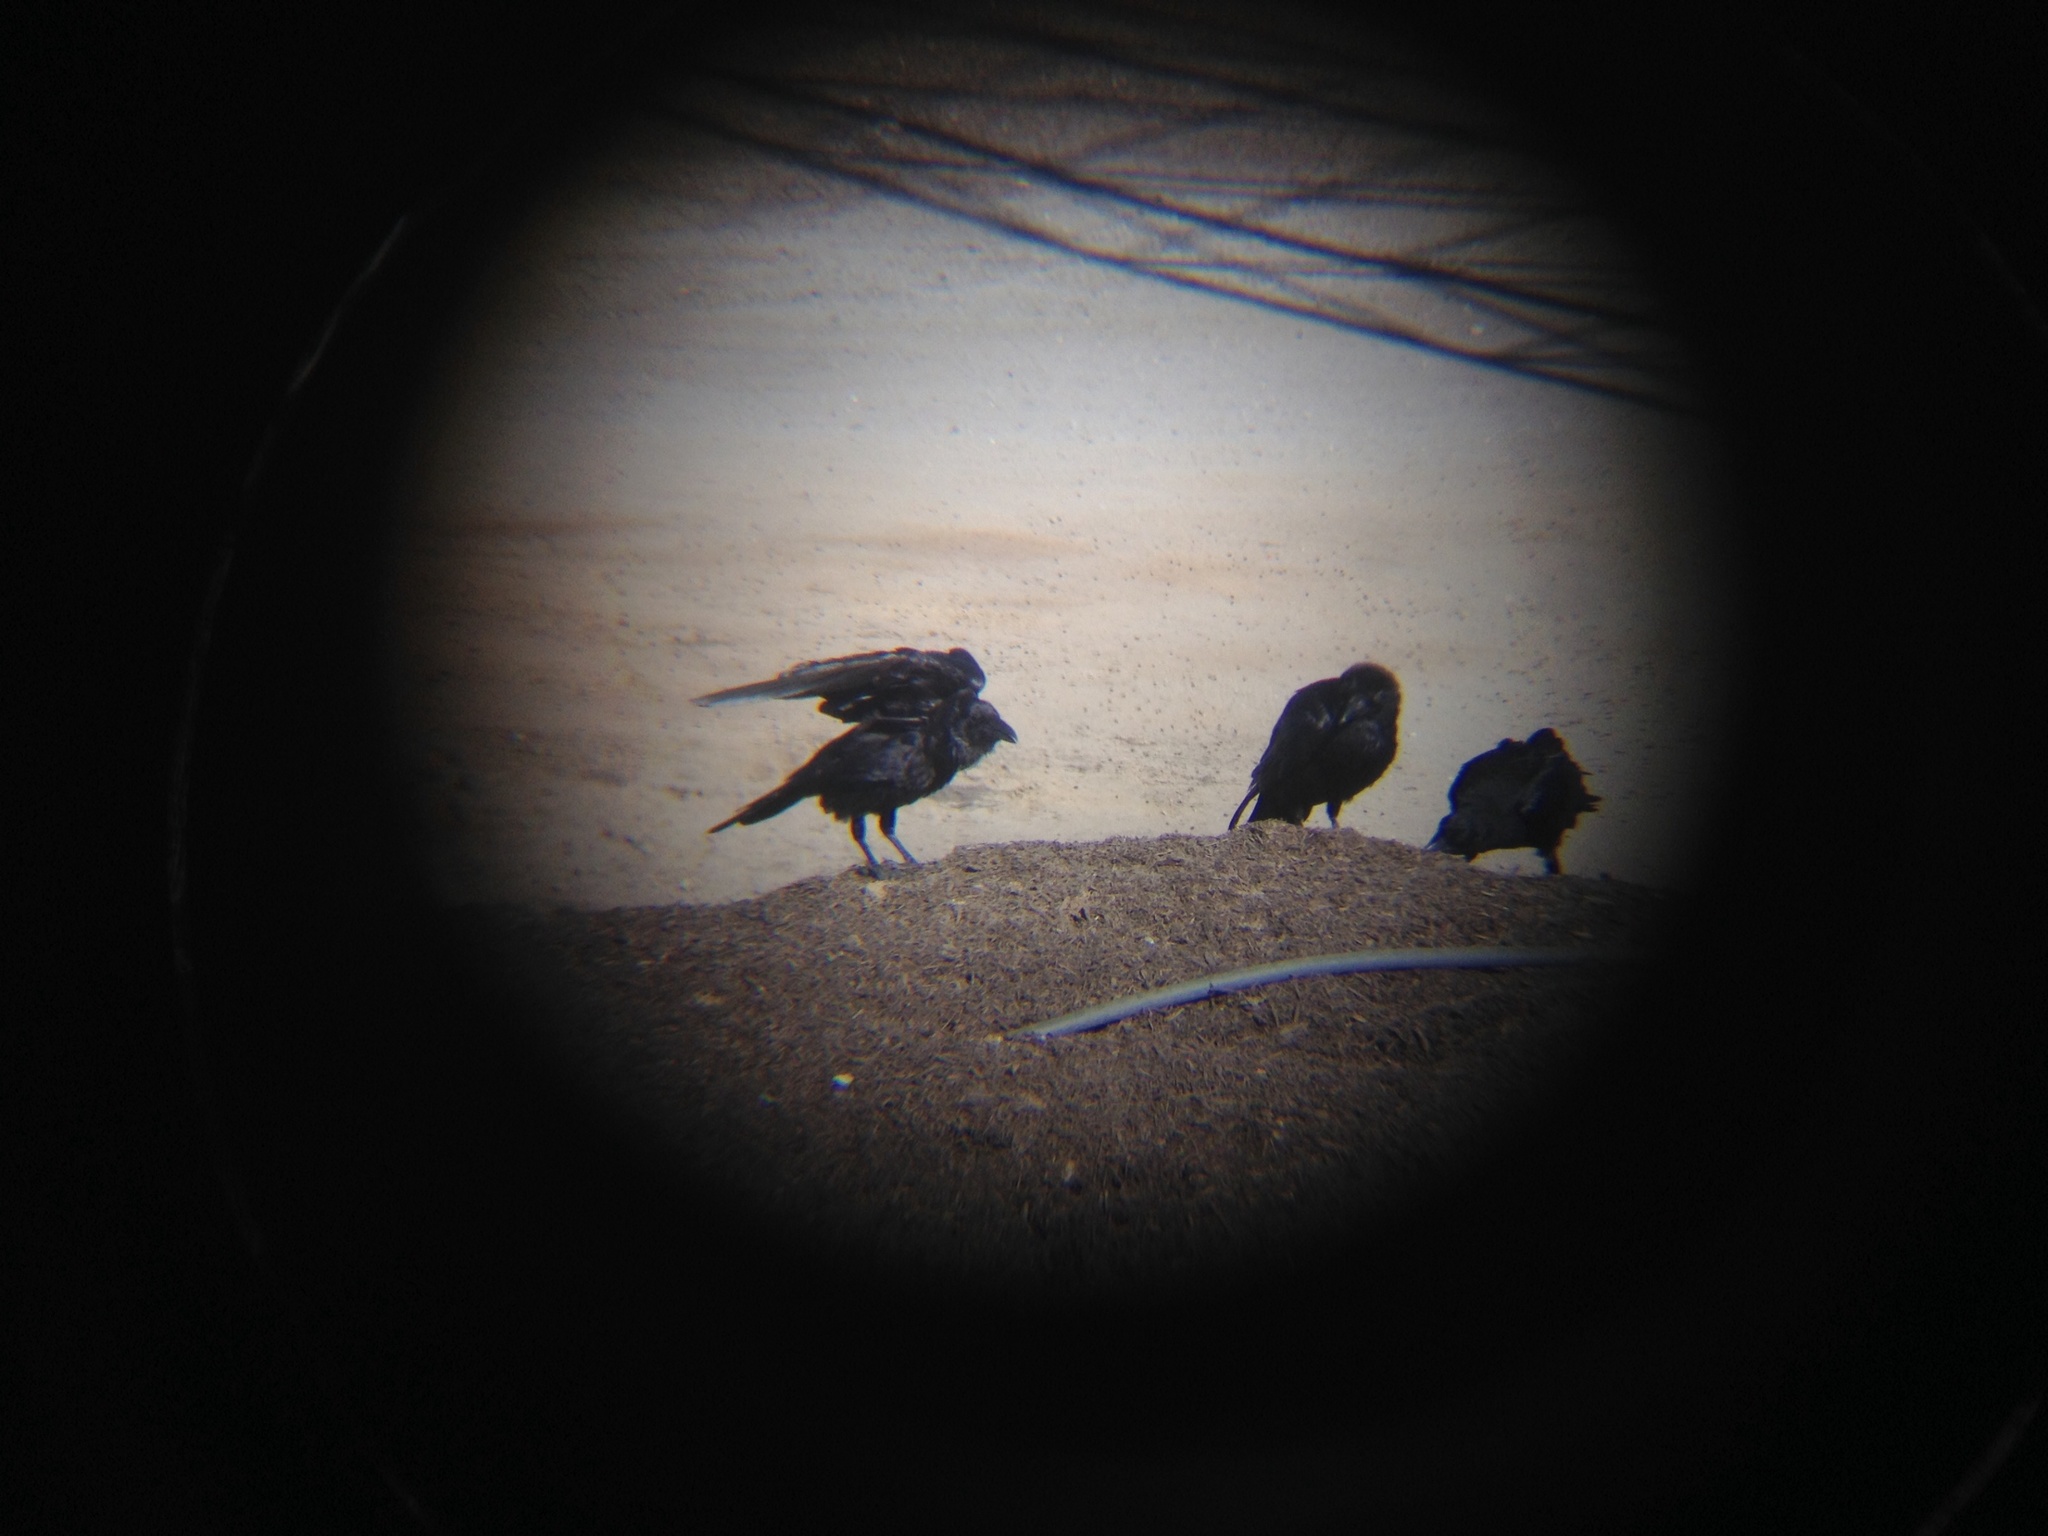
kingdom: Animalia
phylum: Chordata
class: Aves
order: Passeriformes
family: Corvidae
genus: Corvus
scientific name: Corvus corax
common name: Common raven
